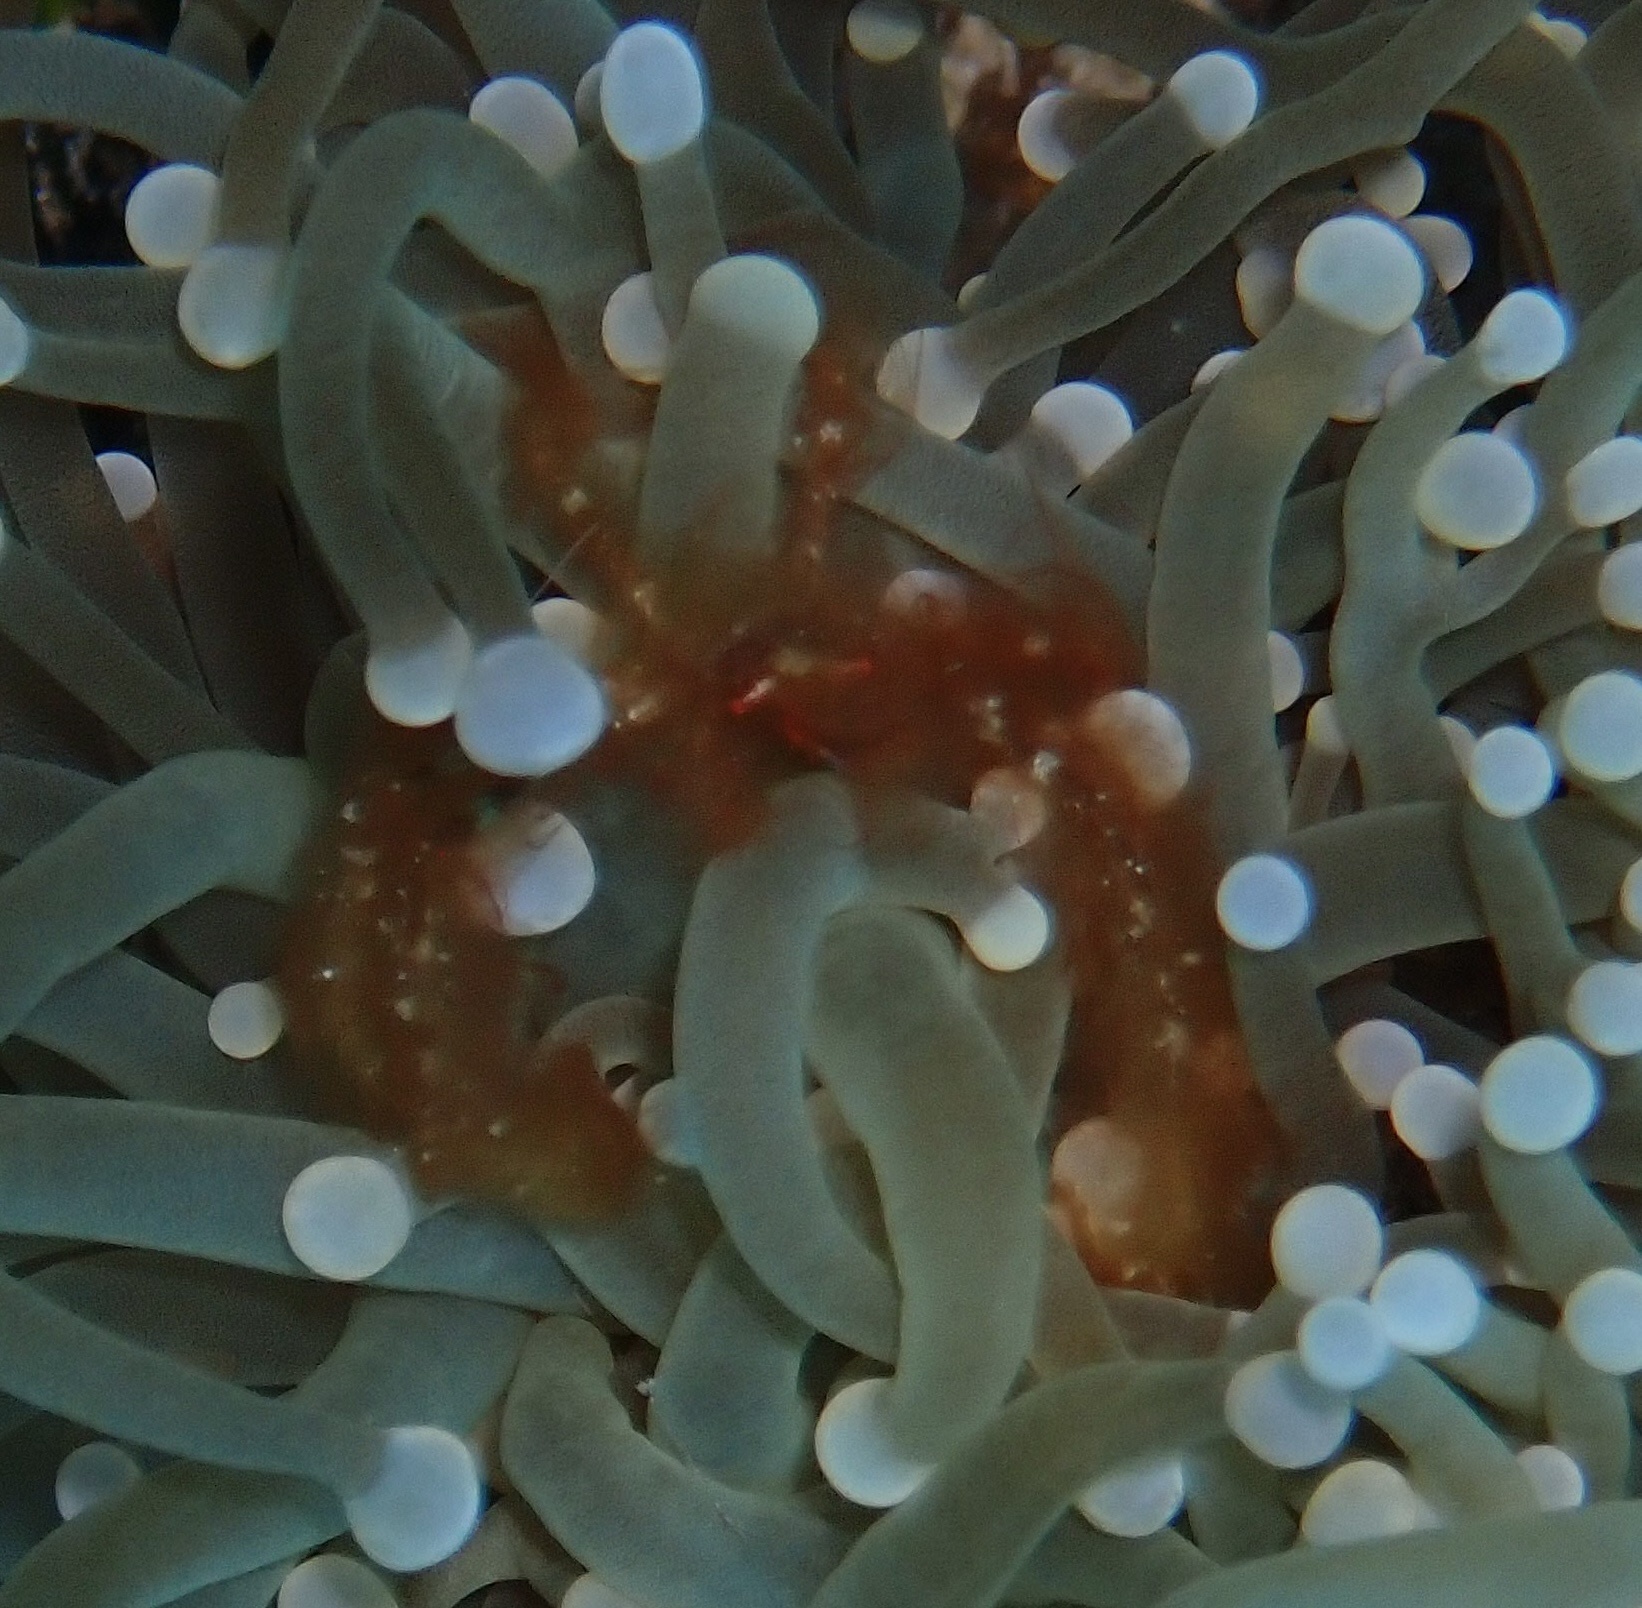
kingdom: Animalia
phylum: Arthropoda
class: Malacostraca
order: Decapoda
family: Inachidae
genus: Achaeus
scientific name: Achaeus japonicus
